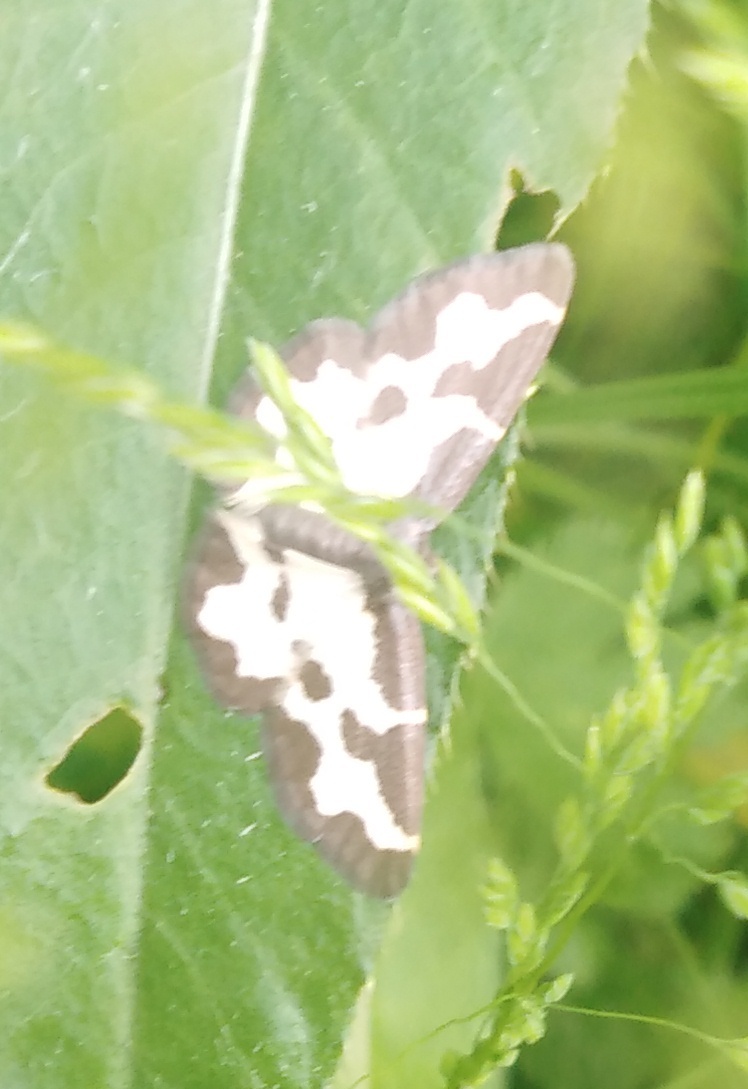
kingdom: Animalia
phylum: Arthropoda
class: Insecta
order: Lepidoptera
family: Geometridae
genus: Lomaspilis
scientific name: Lomaspilis marginata
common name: Clouded border
